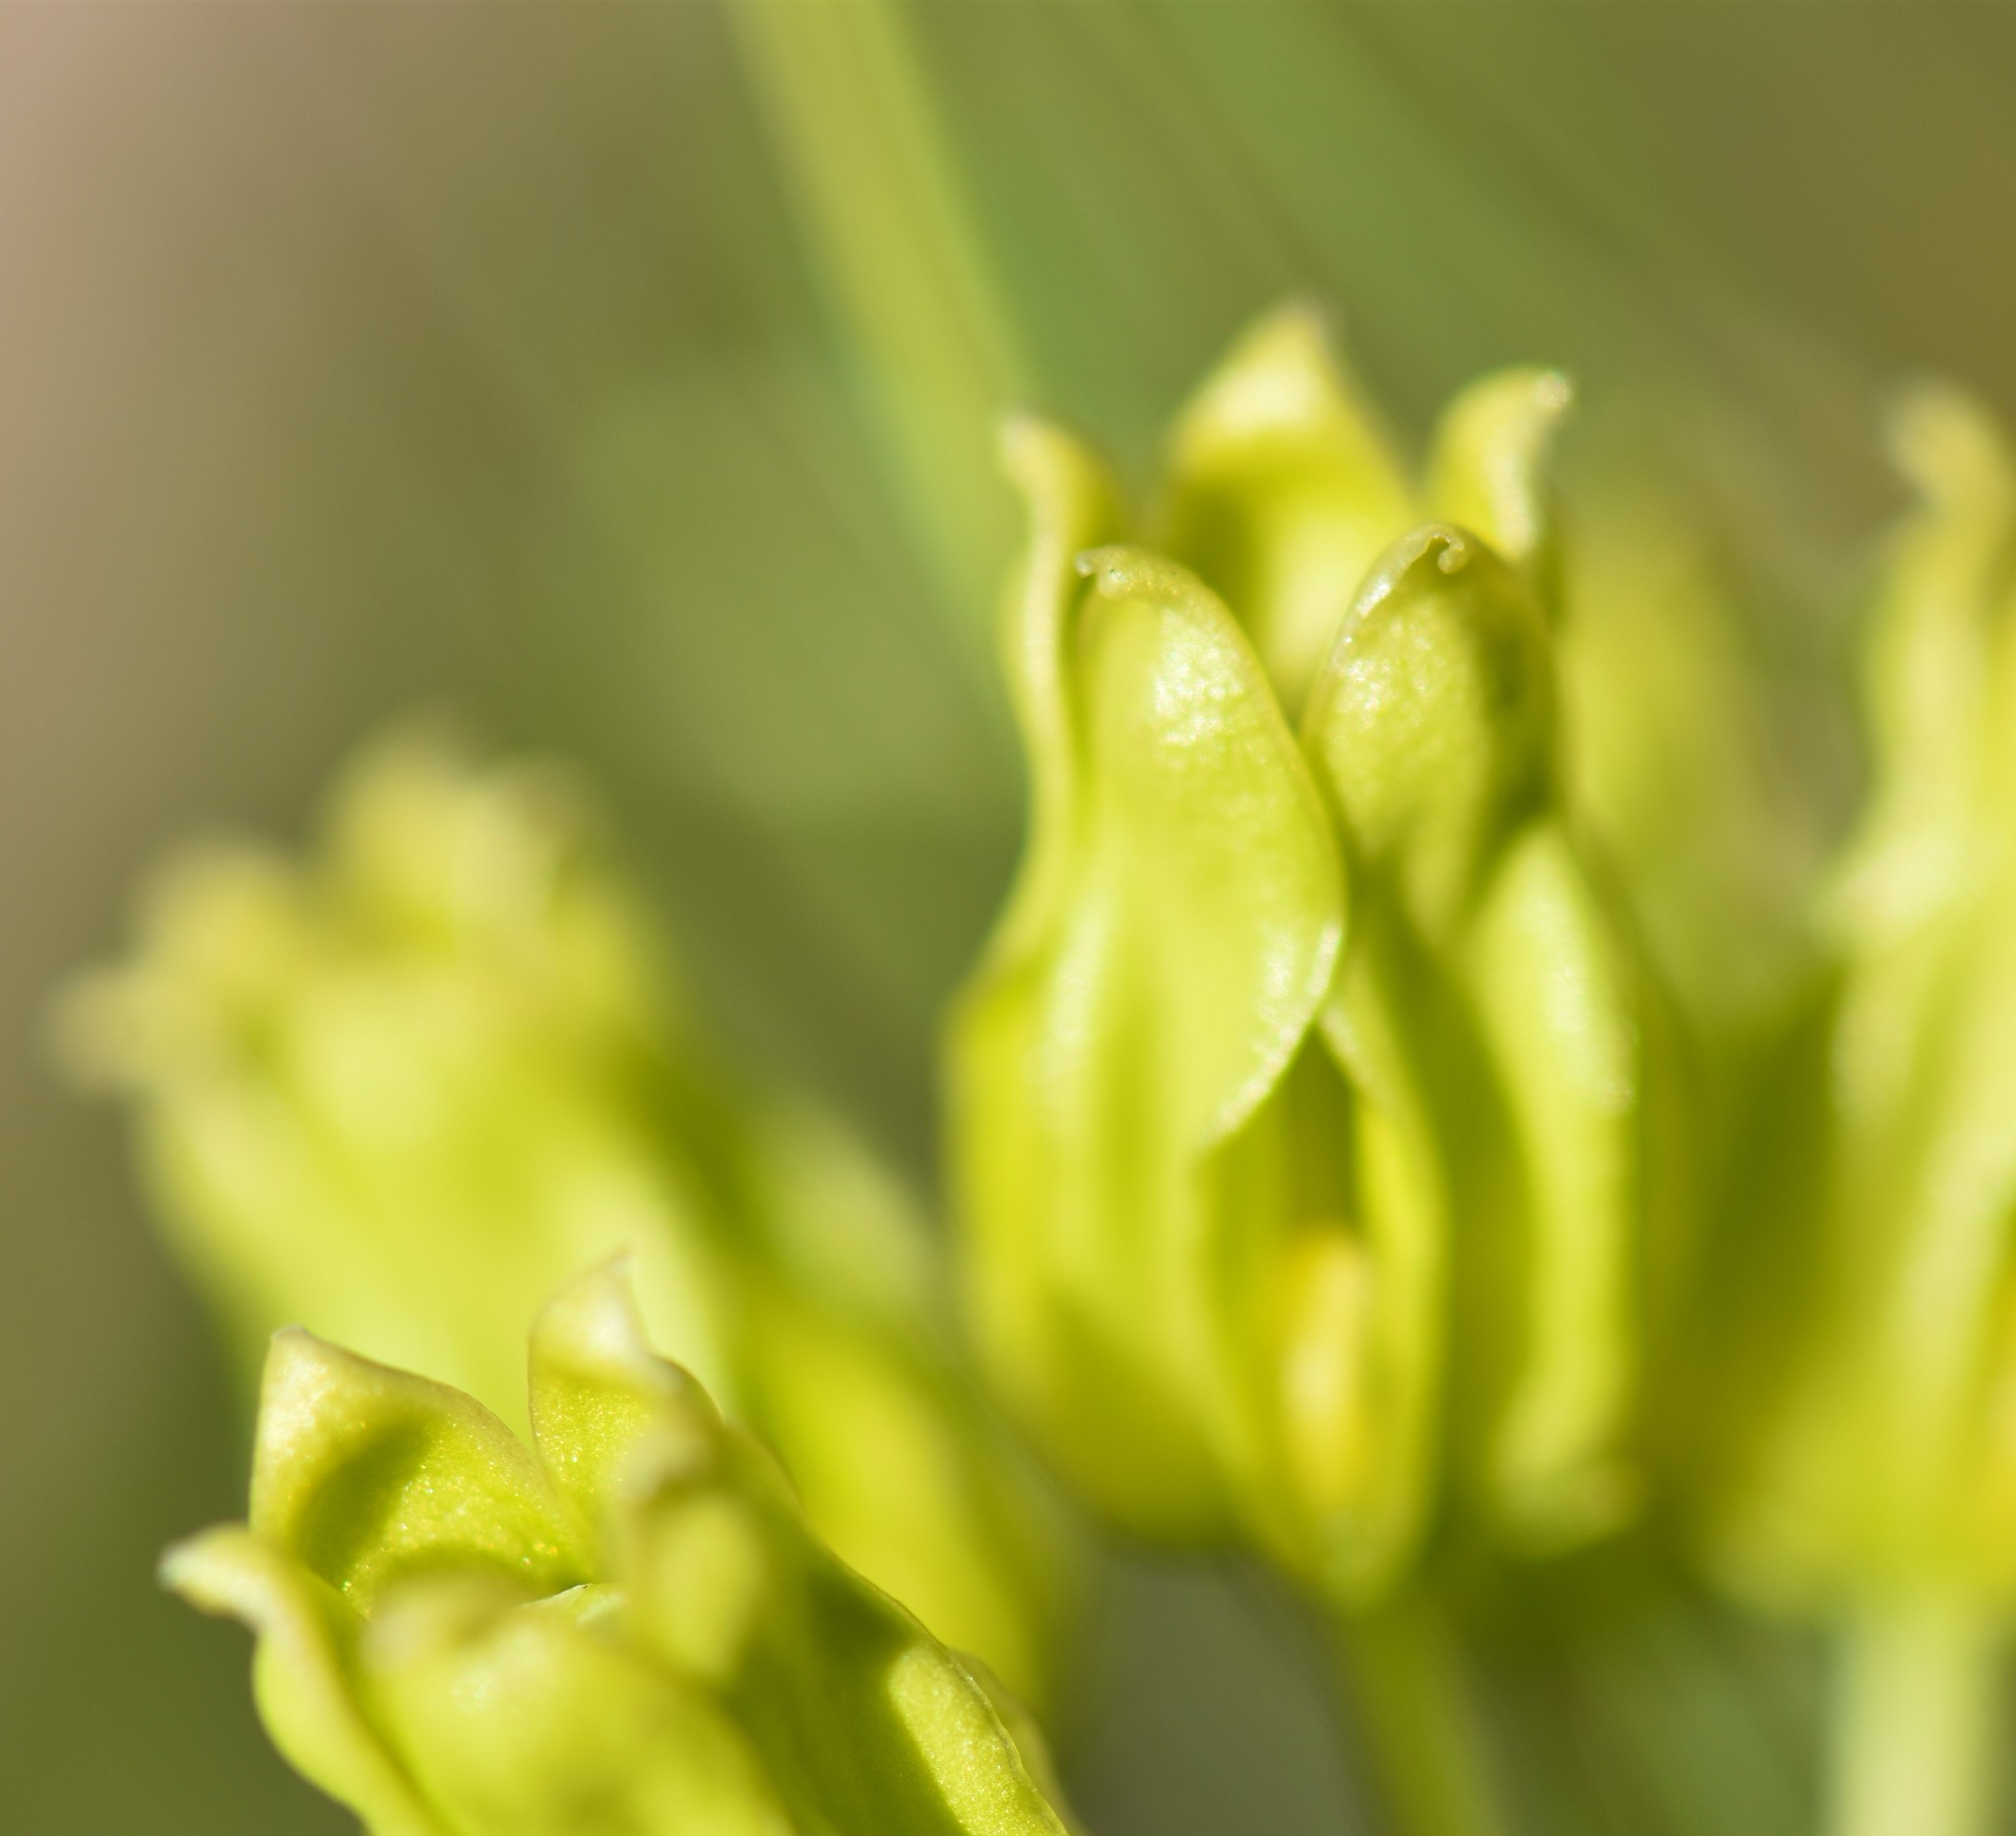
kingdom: Plantae
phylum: Tracheophyta
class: Magnoliopsida
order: Gentianales
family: Apocynaceae
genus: Asclepias
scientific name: Asclepias pedicellata
